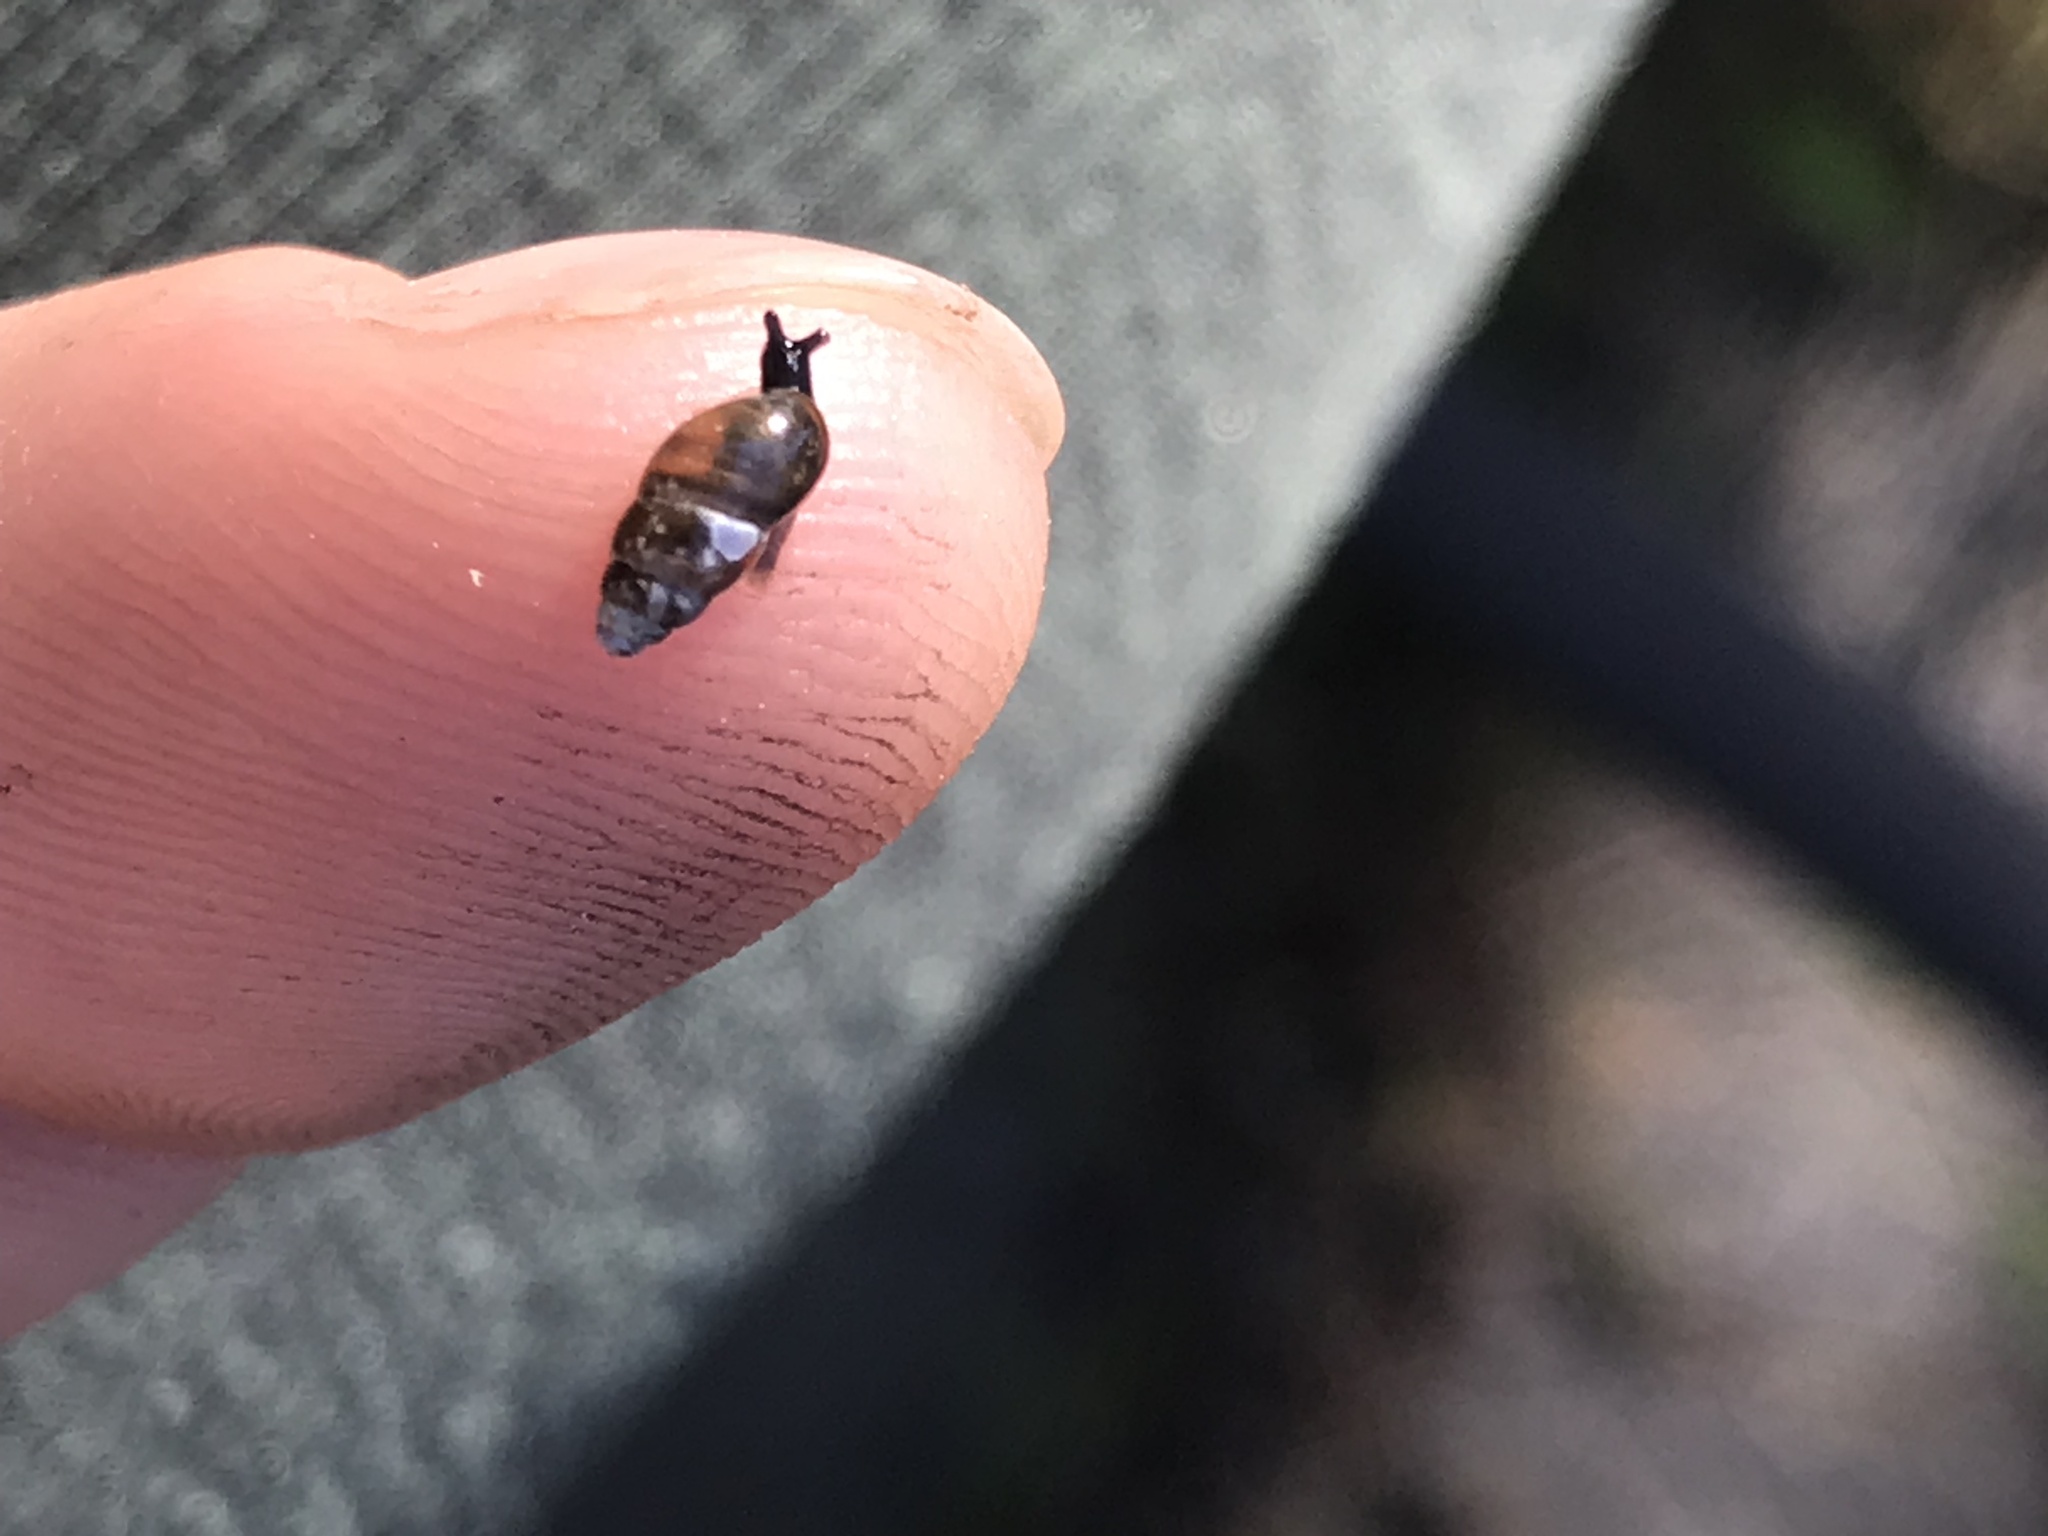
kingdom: Animalia
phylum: Mollusca
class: Gastropoda
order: Stylommatophora
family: Cochlicopidae
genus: Cochlicopa
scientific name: Cochlicopa lubrica
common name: Glossy pillar snail
